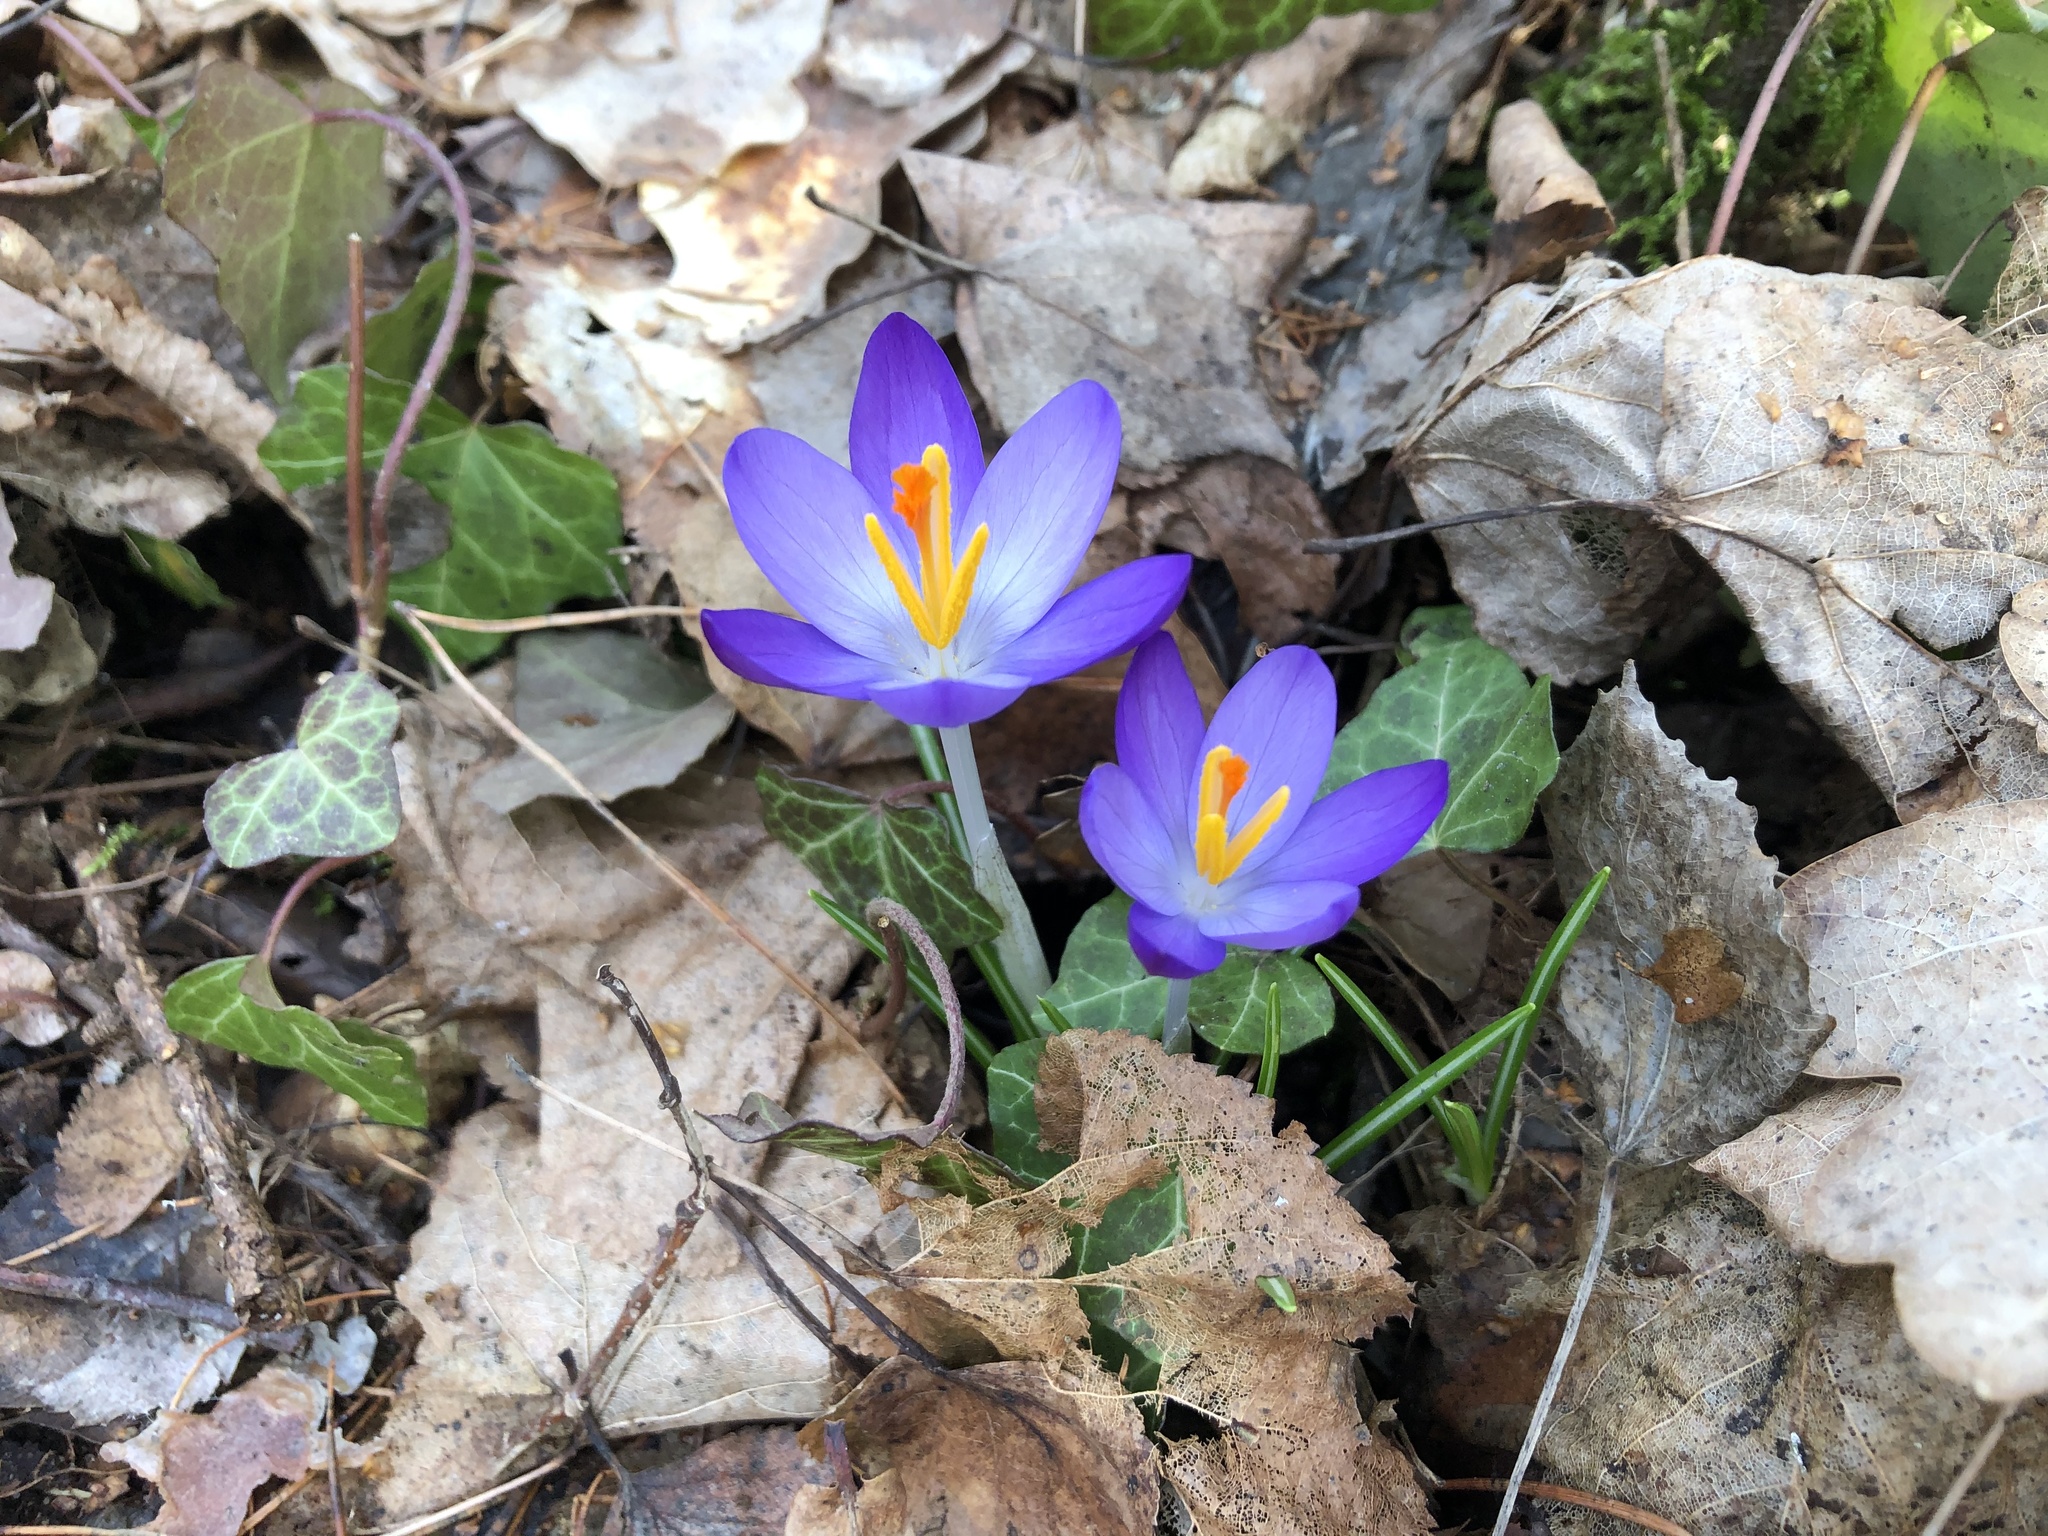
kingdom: Plantae
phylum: Tracheophyta
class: Liliopsida
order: Asparagales
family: Iridaceae
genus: Crocus
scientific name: Crocus tommasinianus
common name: Early crocus
